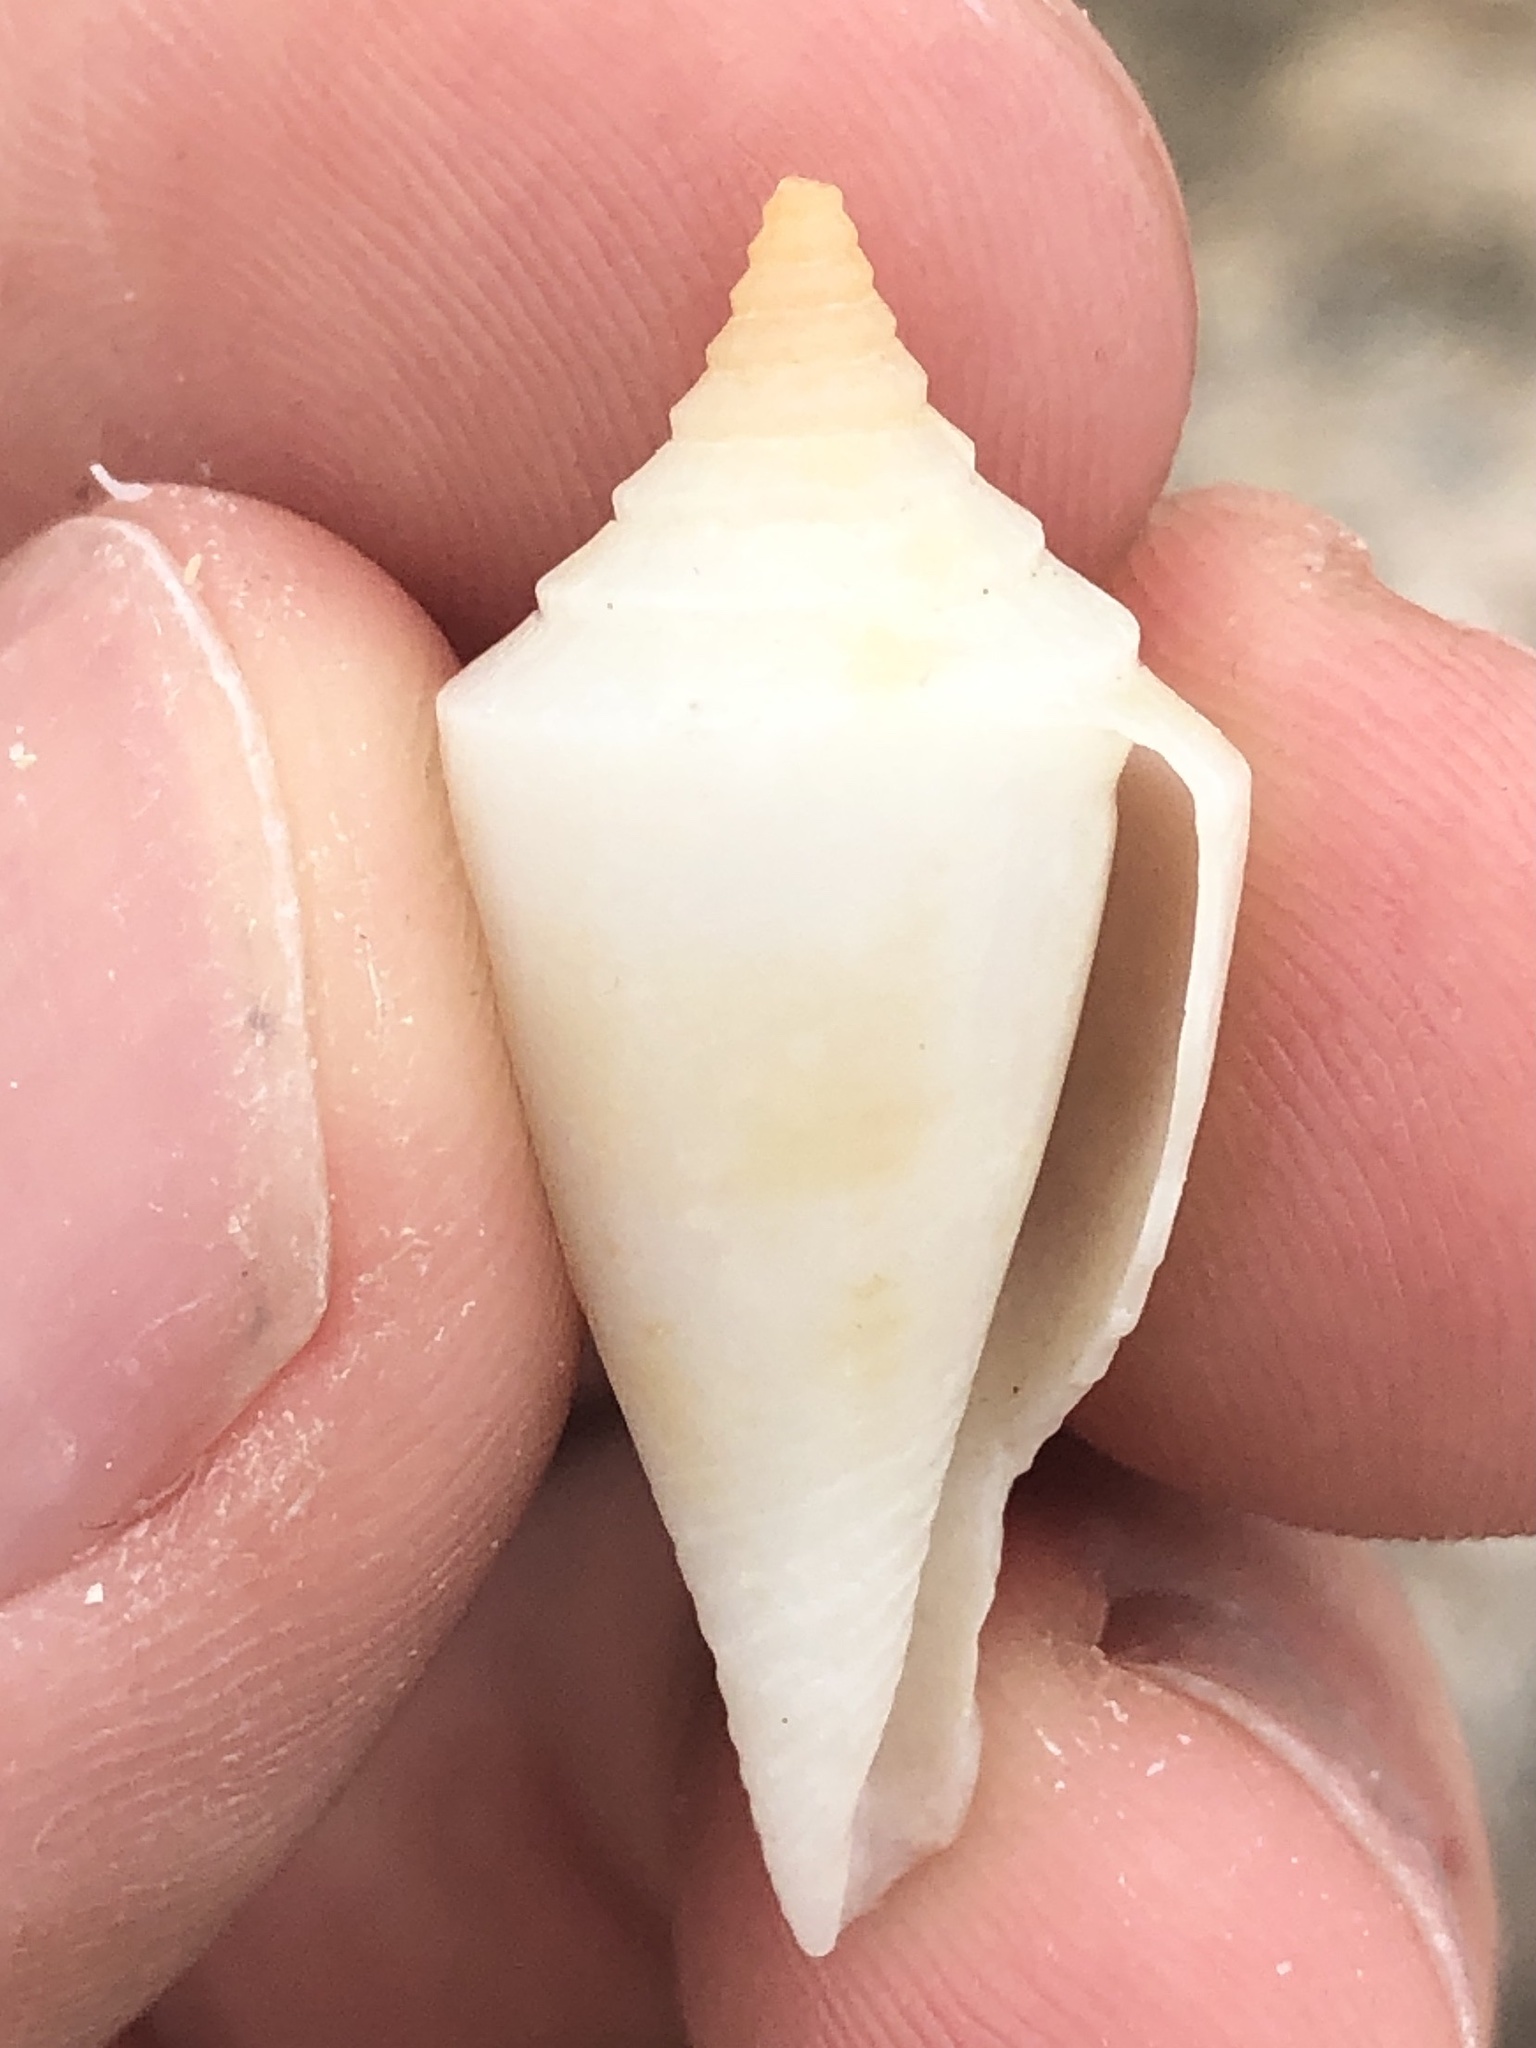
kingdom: Animalia
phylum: Mollusca
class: Gastropoda
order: Neogastropoda
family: Conidae
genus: Conus
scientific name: Conus scalaris
